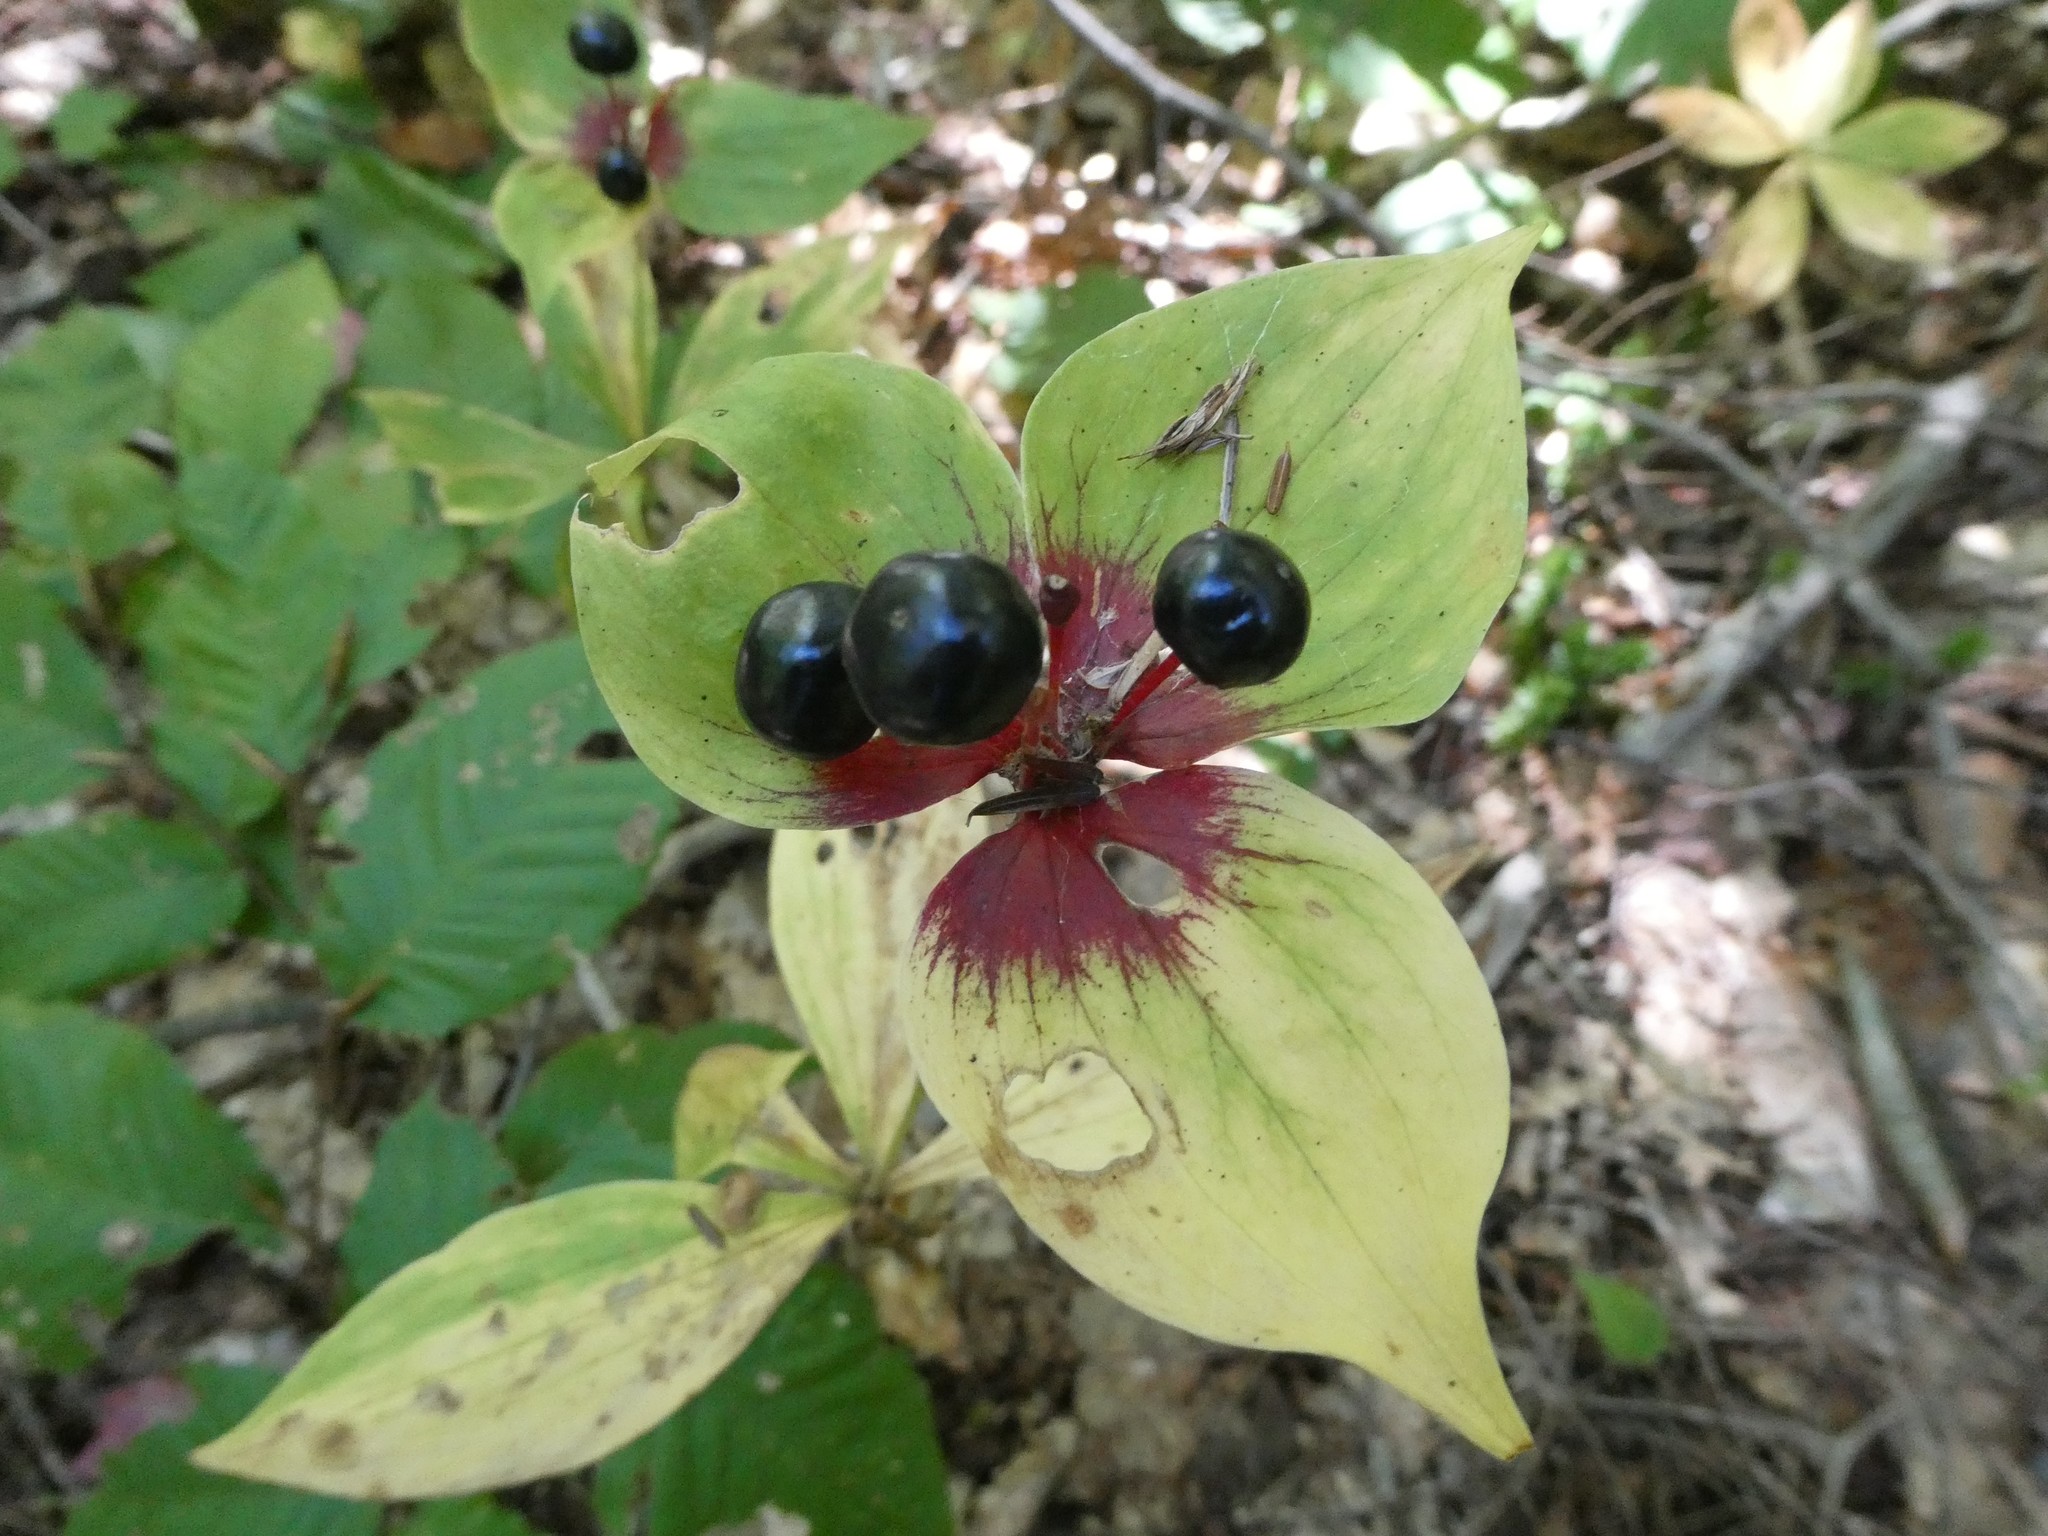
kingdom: Plantae
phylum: Tracheophyta
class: Liliopsida
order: Liliales
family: Liliaceae
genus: Medeola
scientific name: Medeola virginiana
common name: Indian cucumber-root
